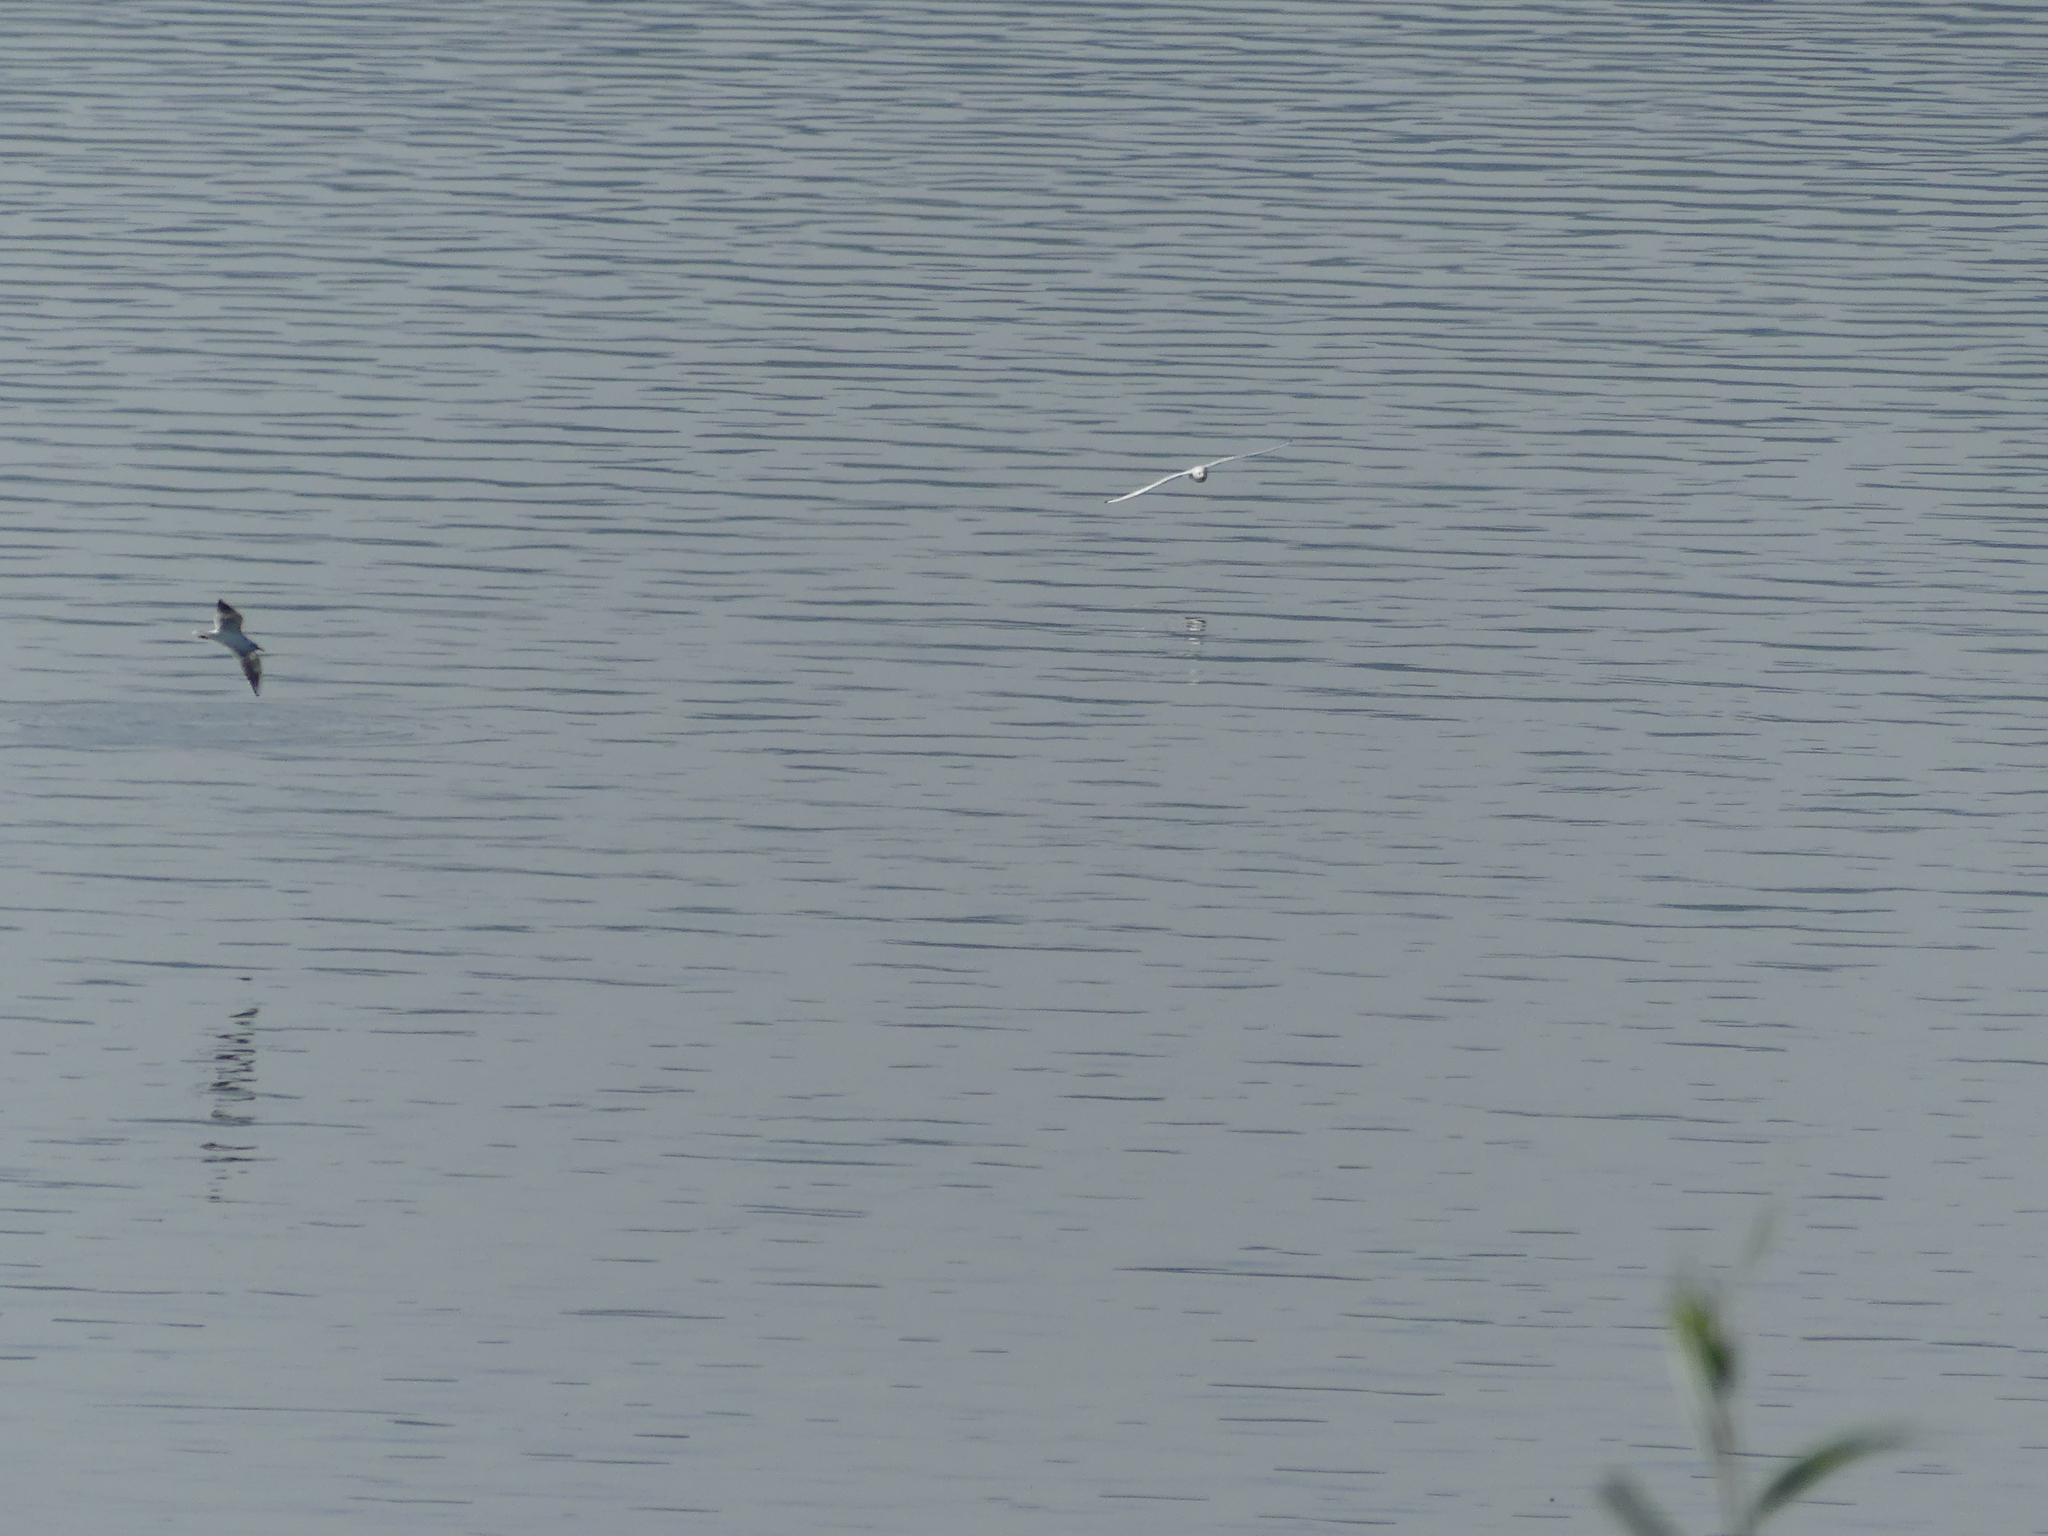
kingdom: Animalia
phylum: Chordata
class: Aves
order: Charadriiformes
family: Laridae
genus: Chroicocephalus
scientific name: Chroicocephalus ridibundus
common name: Black-headed gull
